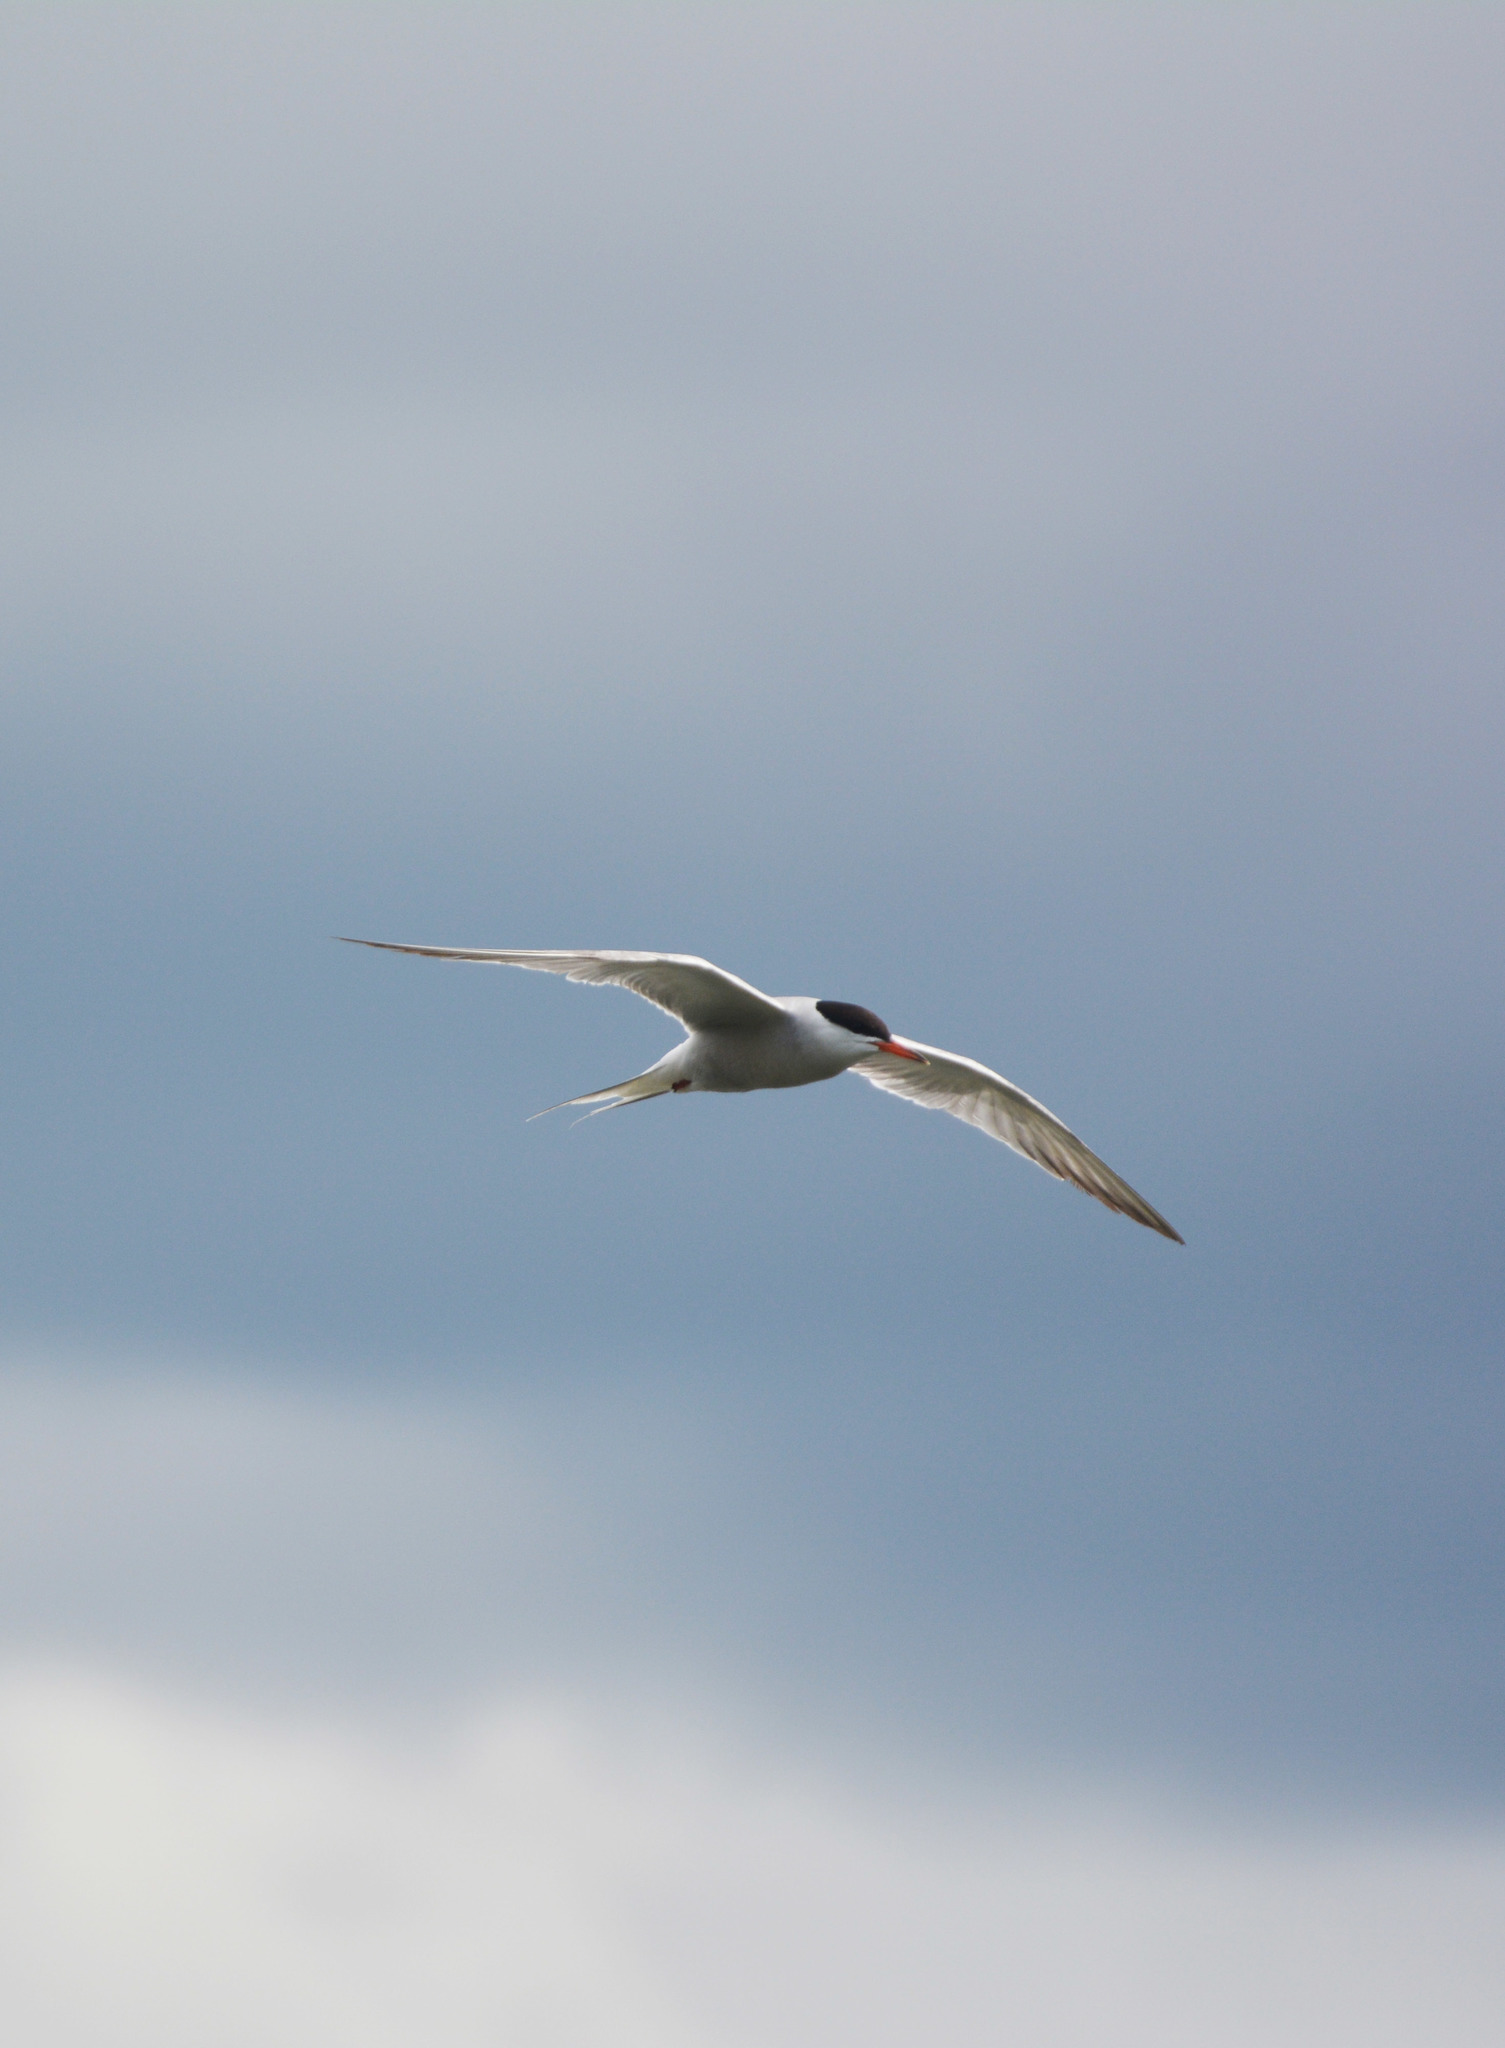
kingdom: Animalia
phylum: Chordata
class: Aves
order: Charadriiformes
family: Laridae
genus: Sterna
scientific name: Sterna hirundo
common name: Common tern
